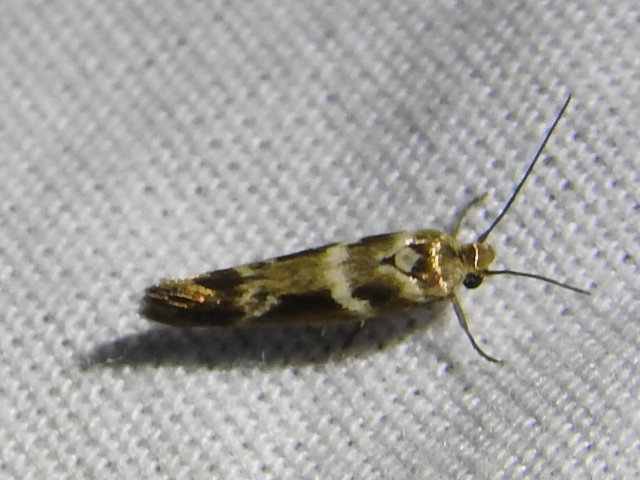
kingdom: Animalia
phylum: Arthropoda
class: Insecta
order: Lepidoptera
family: Scythrididae
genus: Scythris
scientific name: Scythris trivinctella
